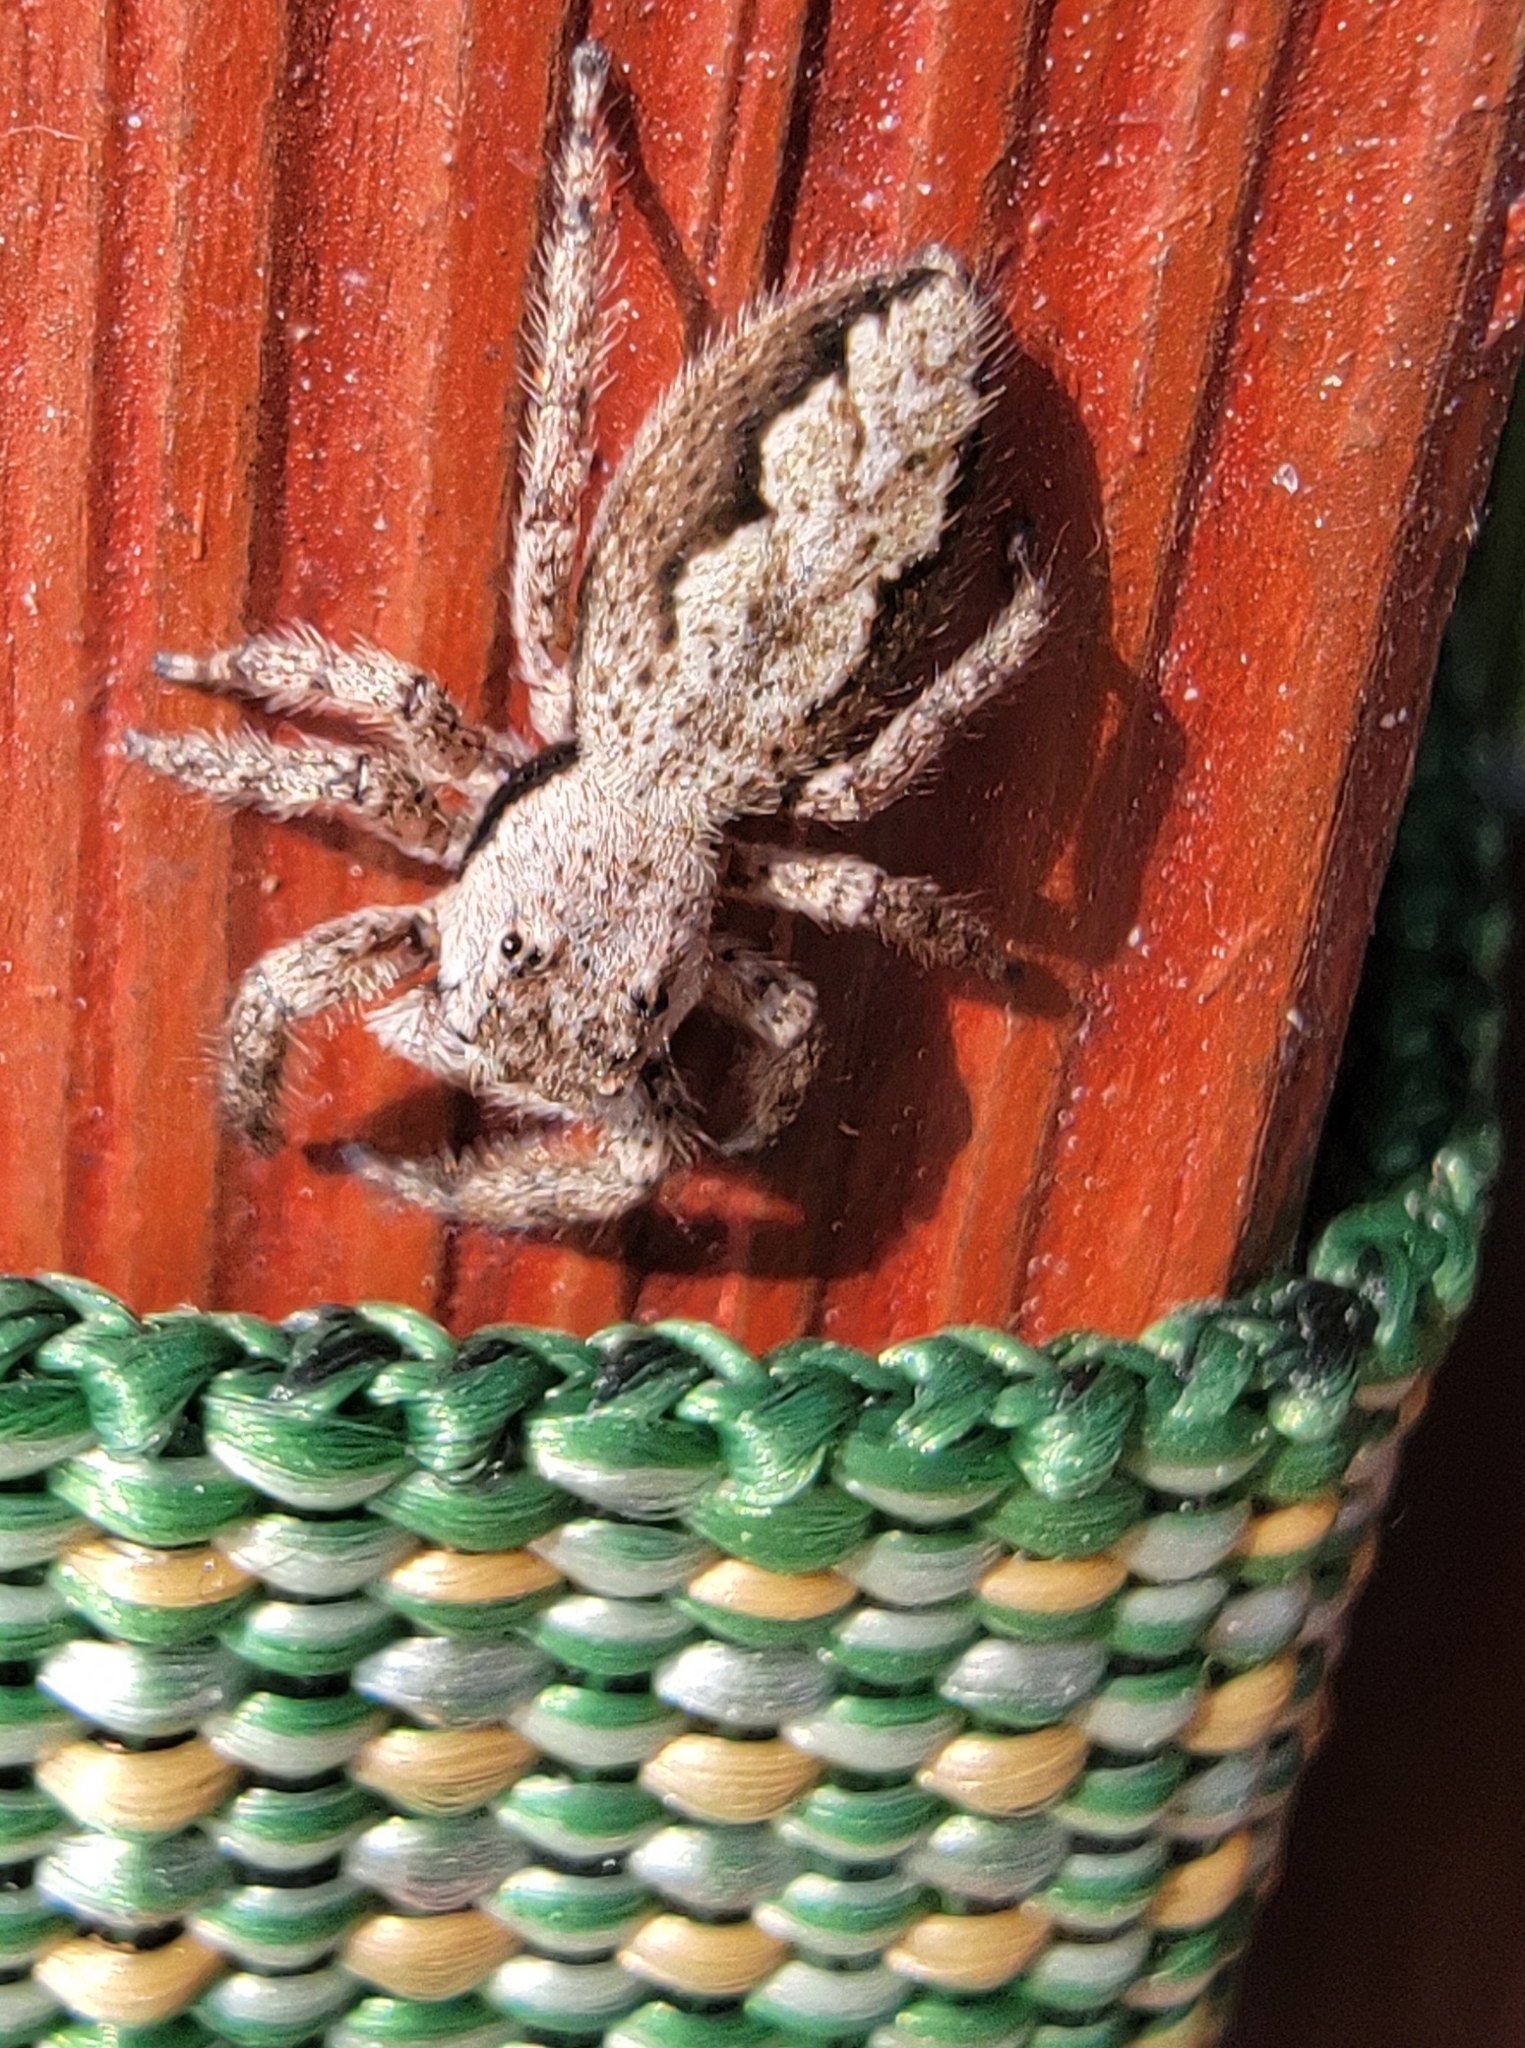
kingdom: Animalia
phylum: Arthropoda
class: Arachnida
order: Araneae
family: Salticidae
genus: Platycryptus
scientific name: Platycryptus undatus
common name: Tan jumping spider
